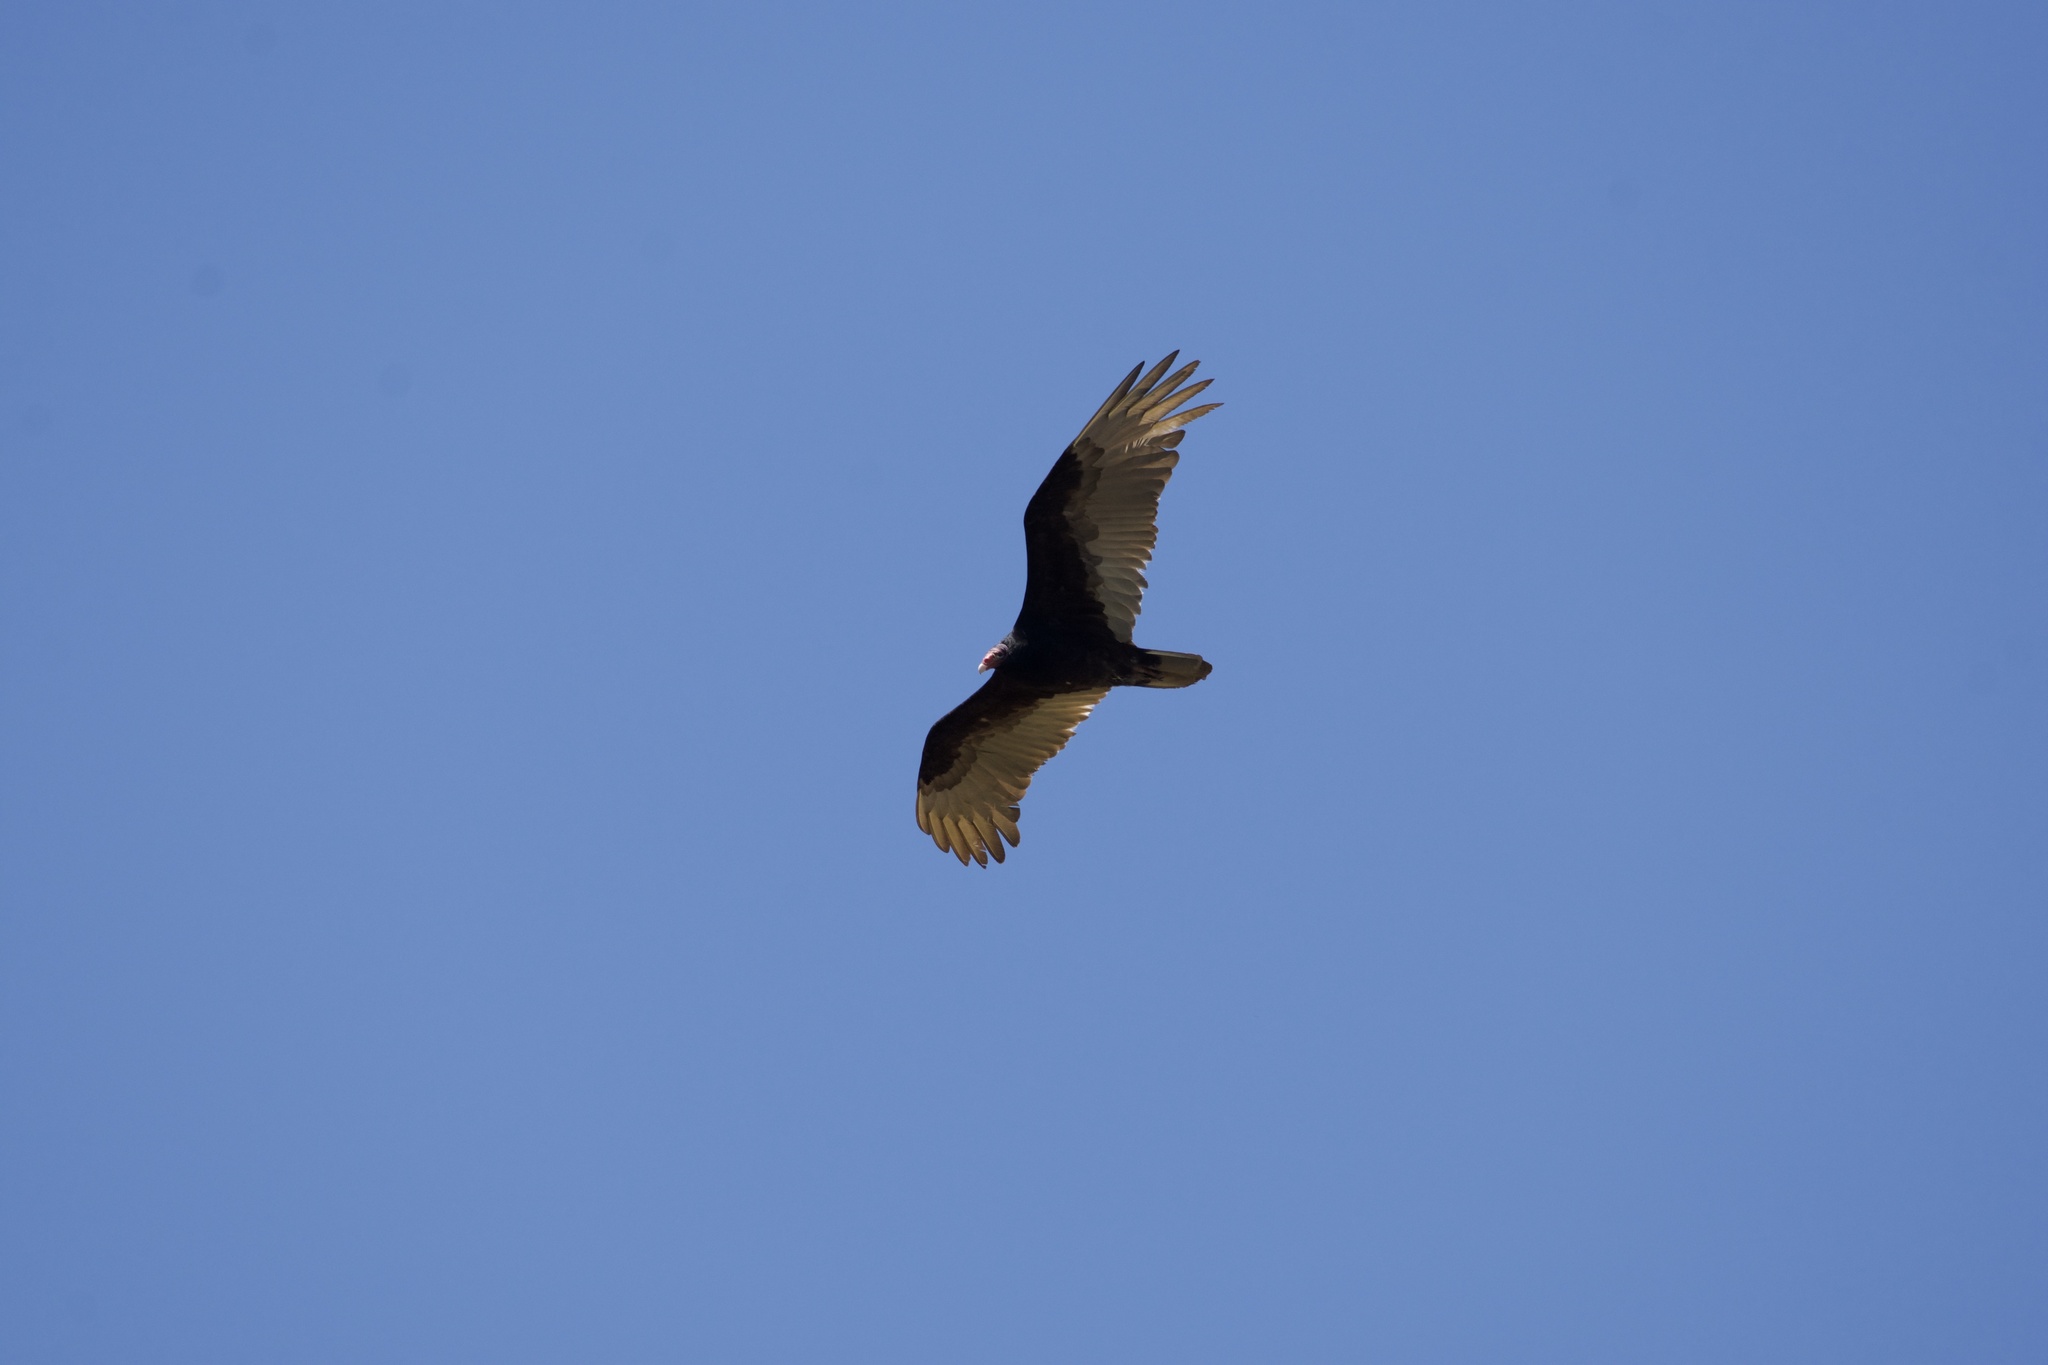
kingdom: Animalia
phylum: Chordata
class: Aves
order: Accipitriformes
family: Cathartidae
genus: Cathartes
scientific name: Cathartes aura
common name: Turkey vulture
